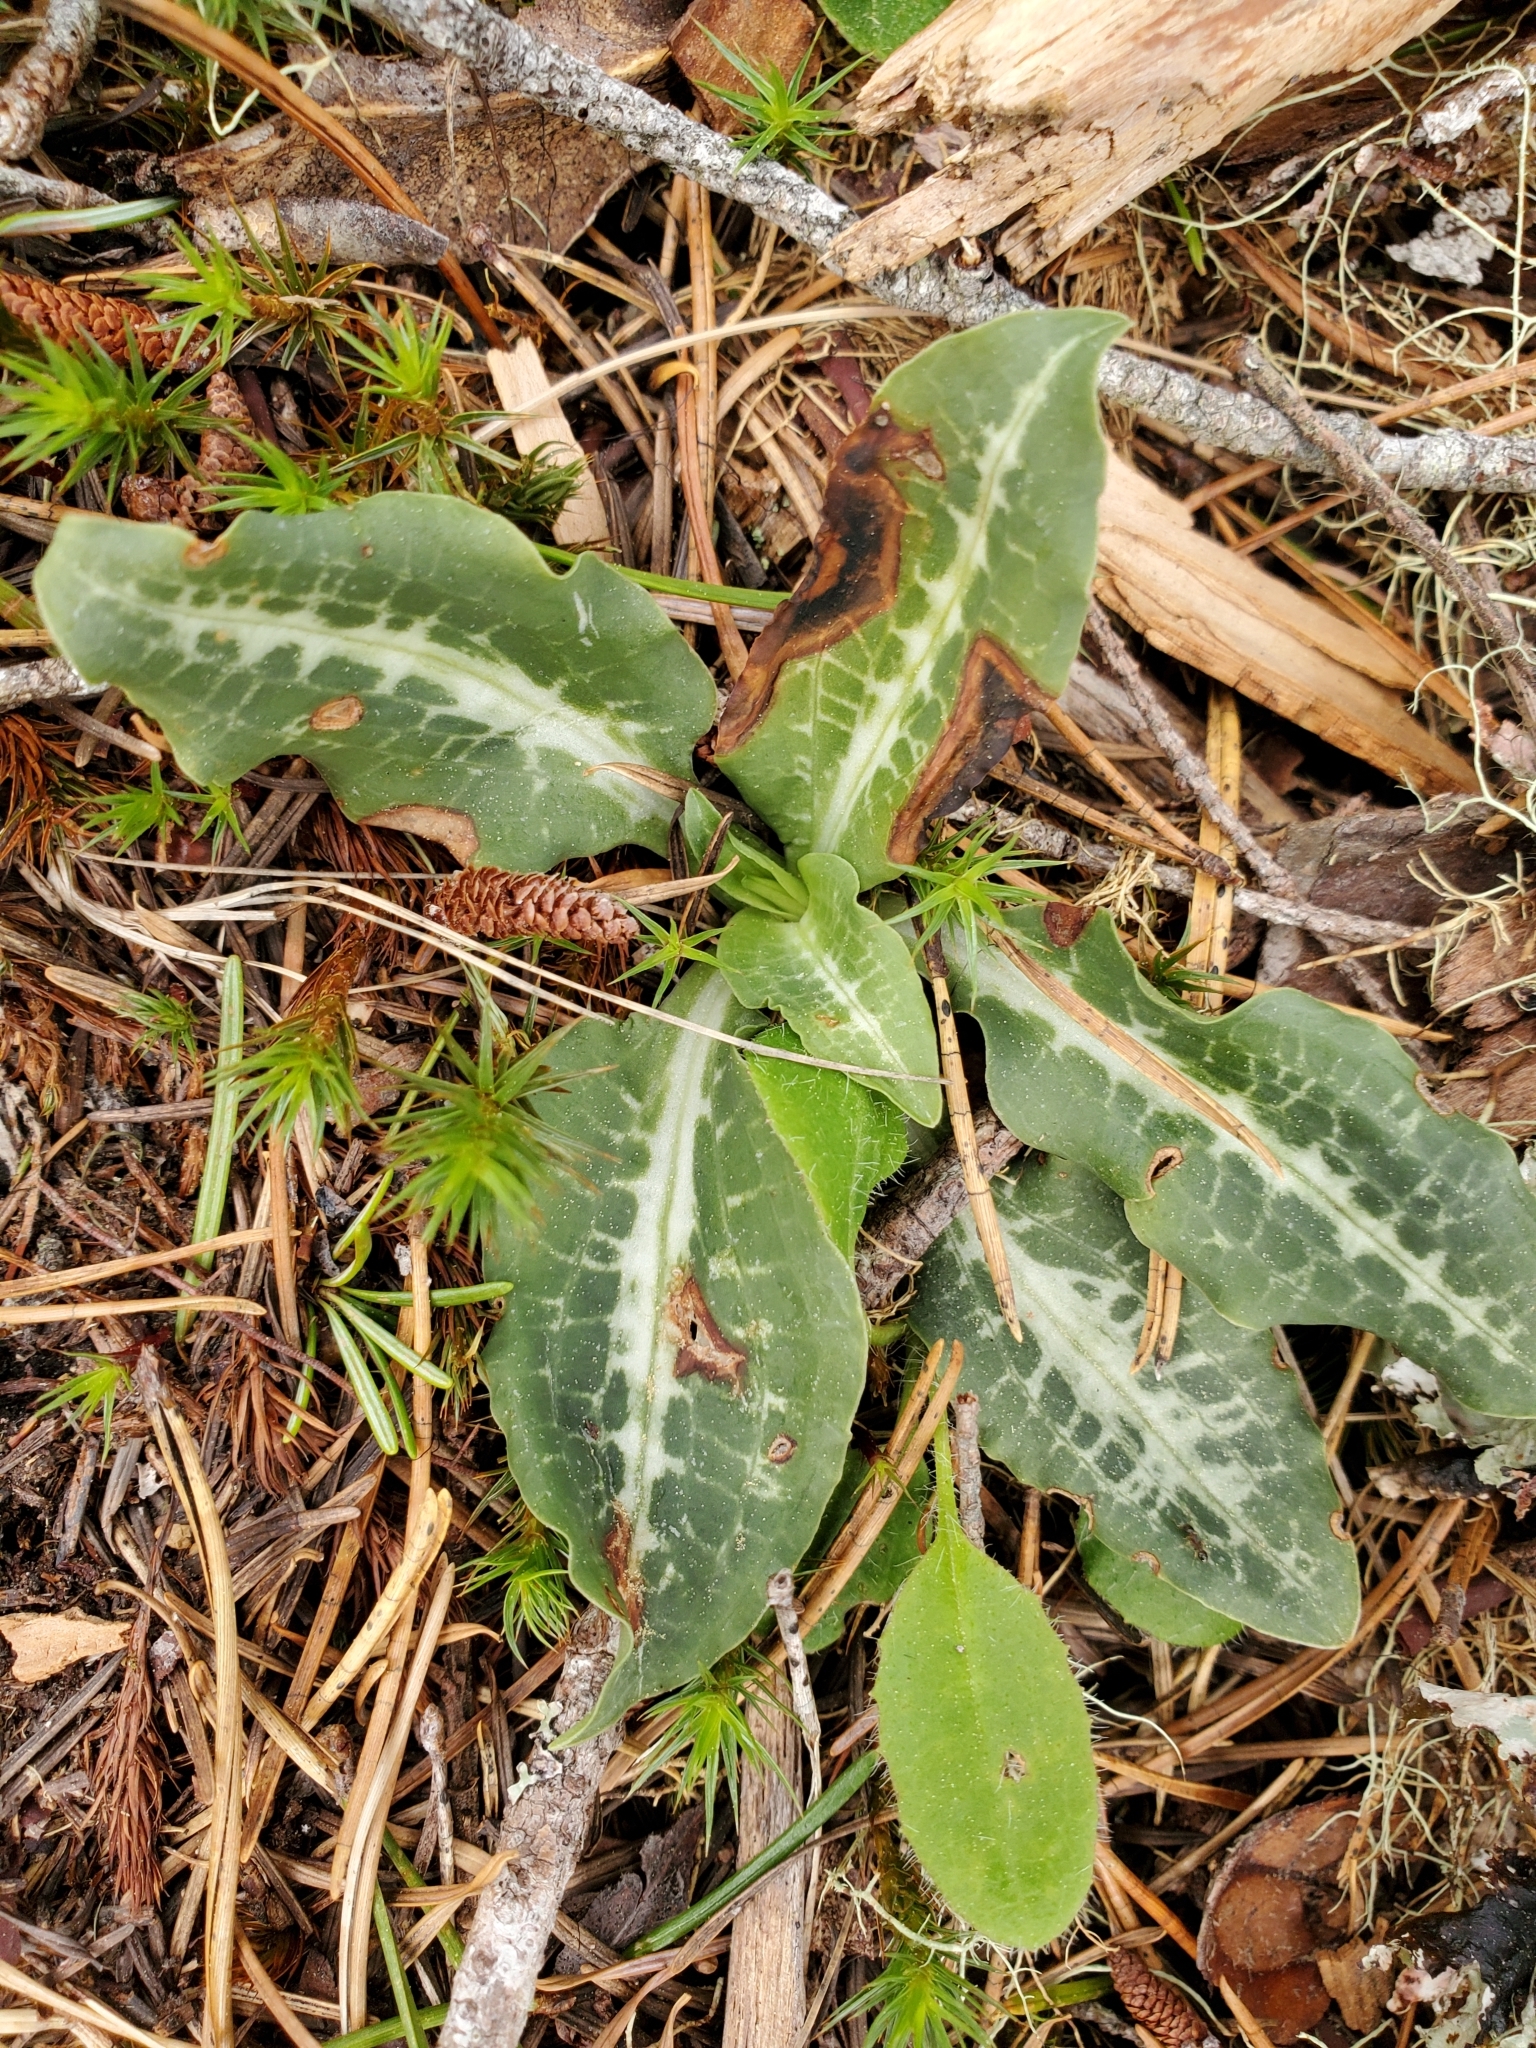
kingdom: Plantae
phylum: Tracheophyta
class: Liliopsida
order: Asparagales
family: Orchidaceae
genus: Goodyera
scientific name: Goodyera oblongifolia
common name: Giant rattlesnake-plantain
